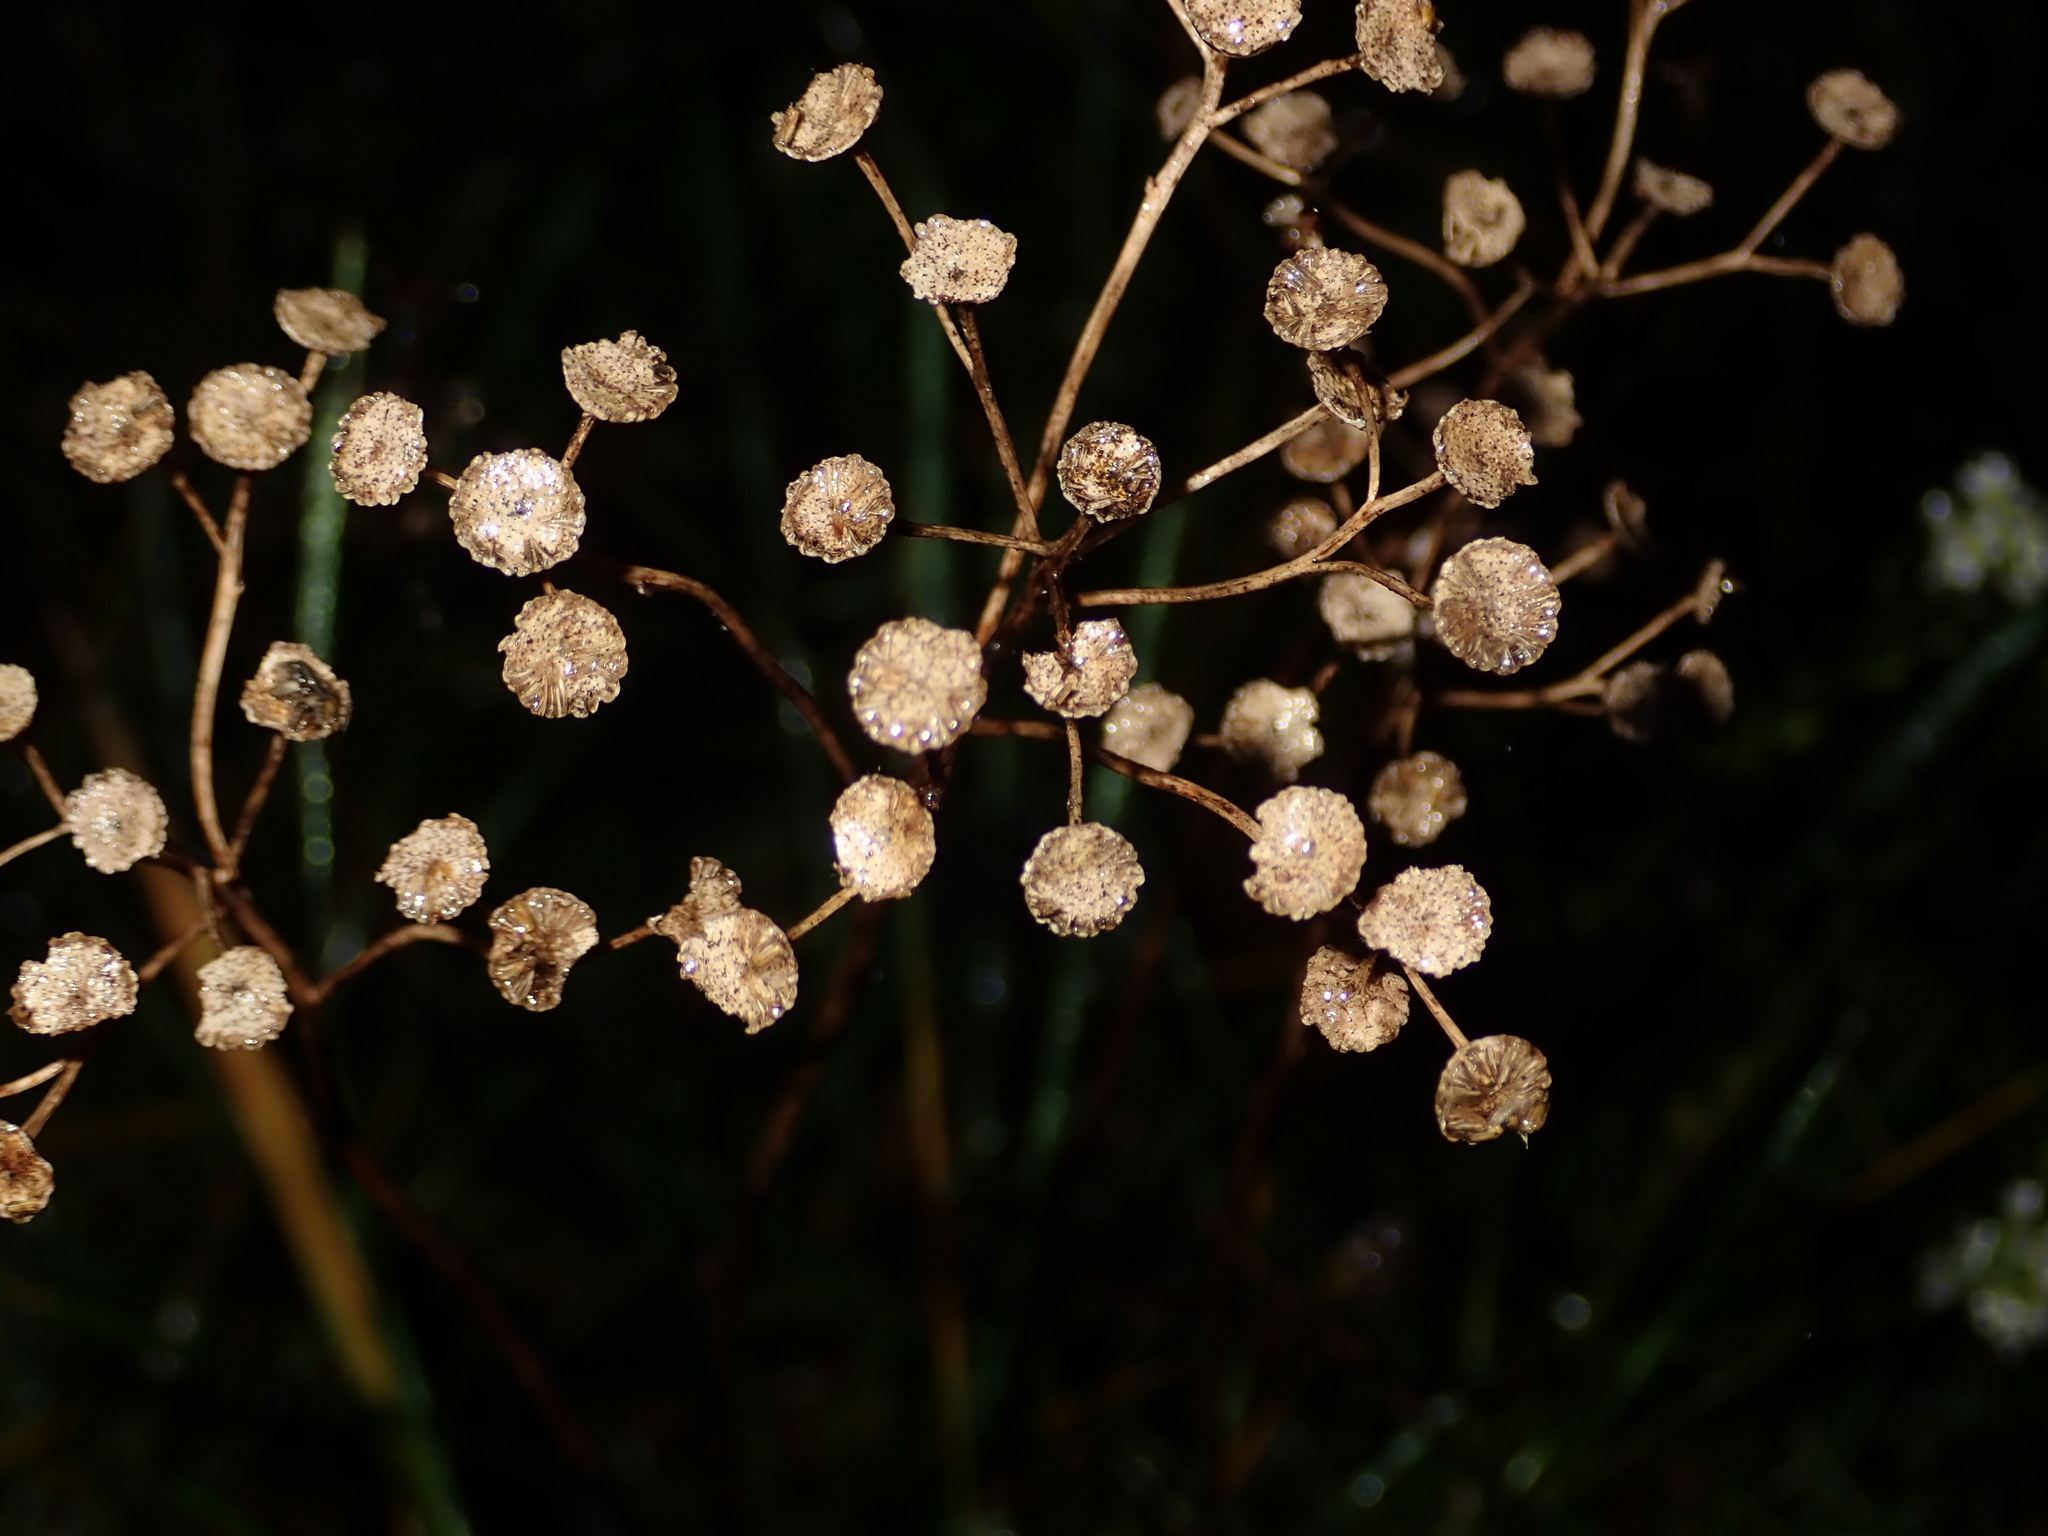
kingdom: Plantae
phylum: Tracheophyta
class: Magnoliopsida
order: Asterales
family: Asteraceae
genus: Tanacetum
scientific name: Tanacetum vulgare
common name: Common tansy
